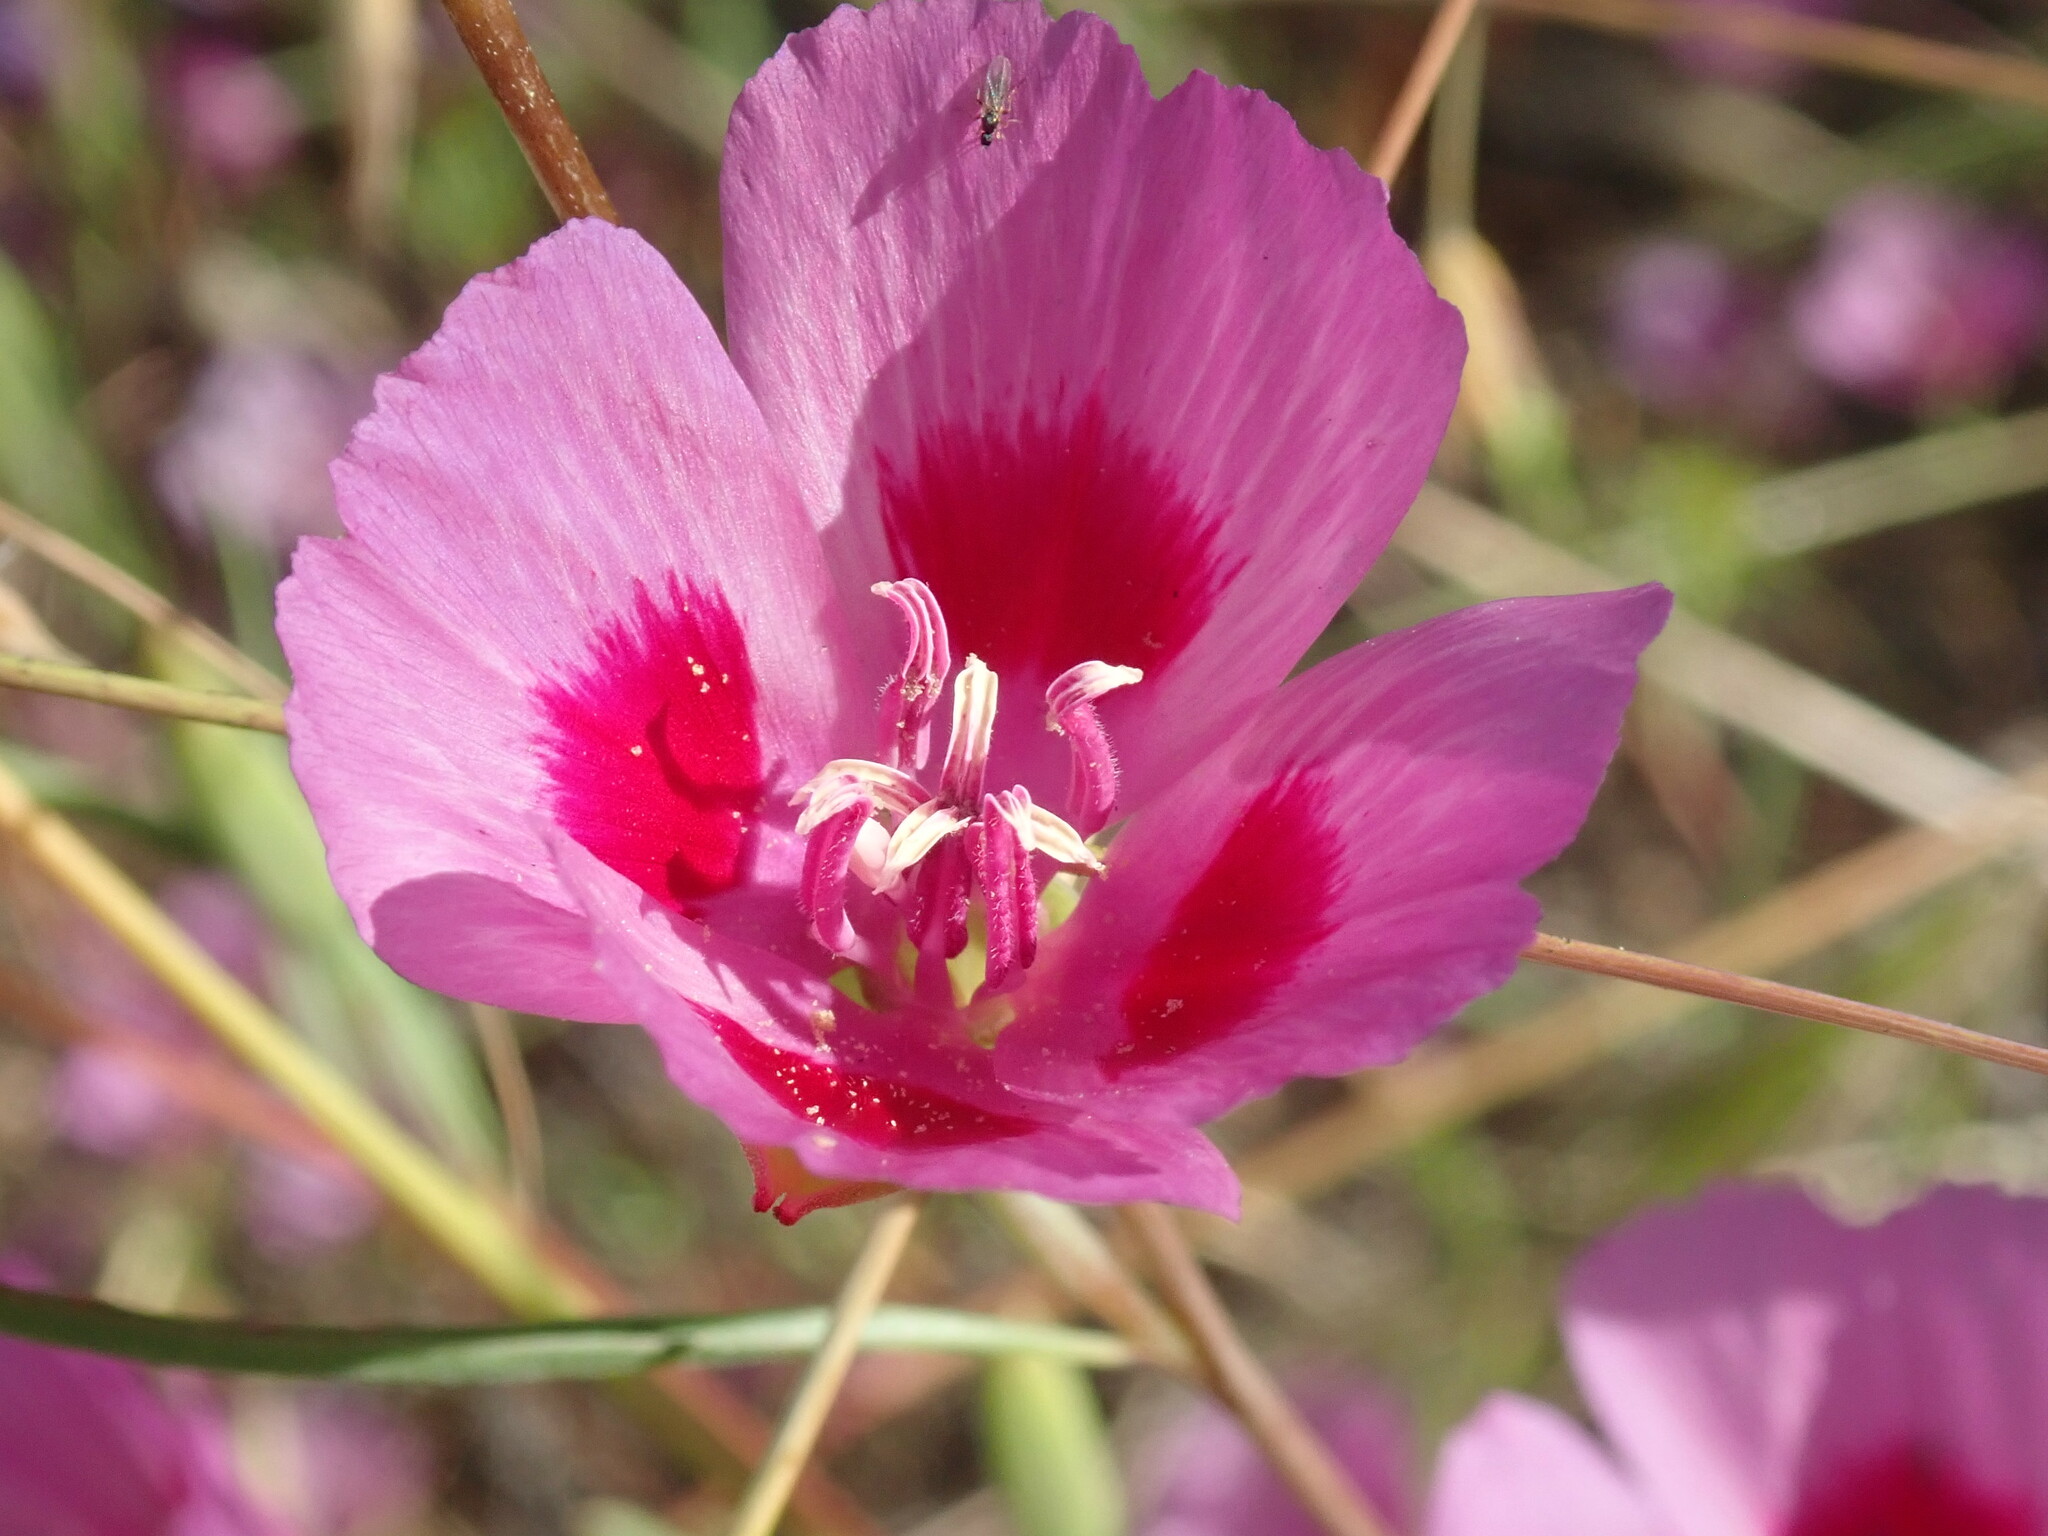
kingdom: Plantae
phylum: Tracheophyta
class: Magnoliopsida
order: Myrtales
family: Onagraceae
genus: Clarkia
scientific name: Clarkia amoena
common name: Godetia
